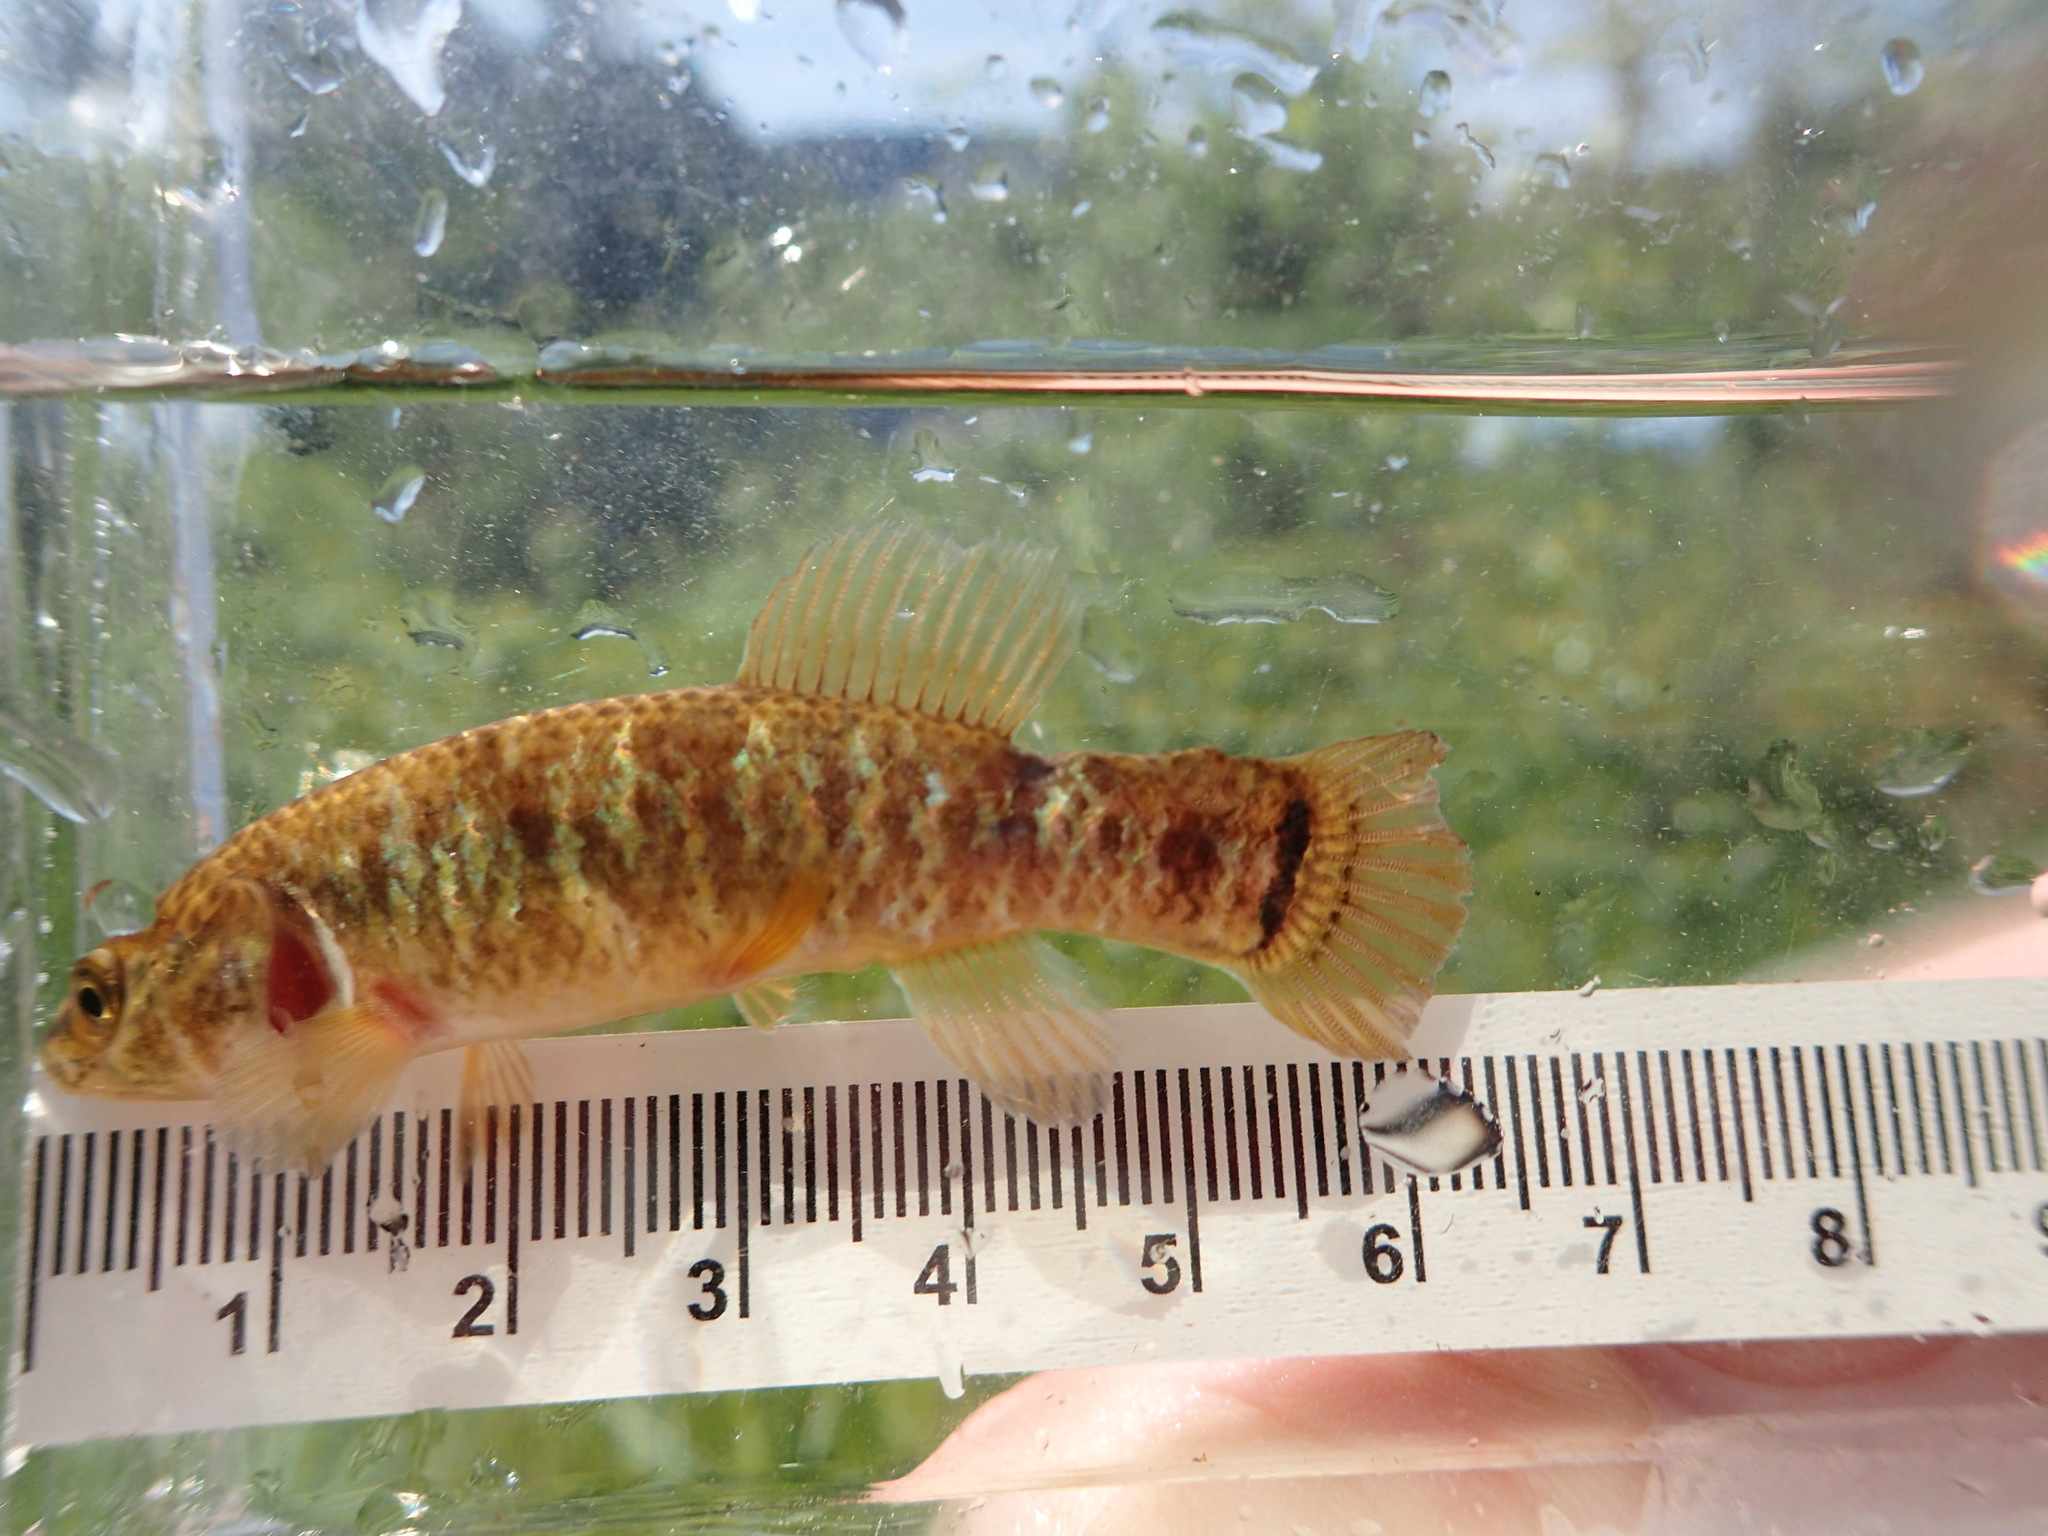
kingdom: Animalia
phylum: Chordata
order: Esociformes
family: Umbridae
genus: Umbra
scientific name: Umbra limi
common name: Central mudminnow
